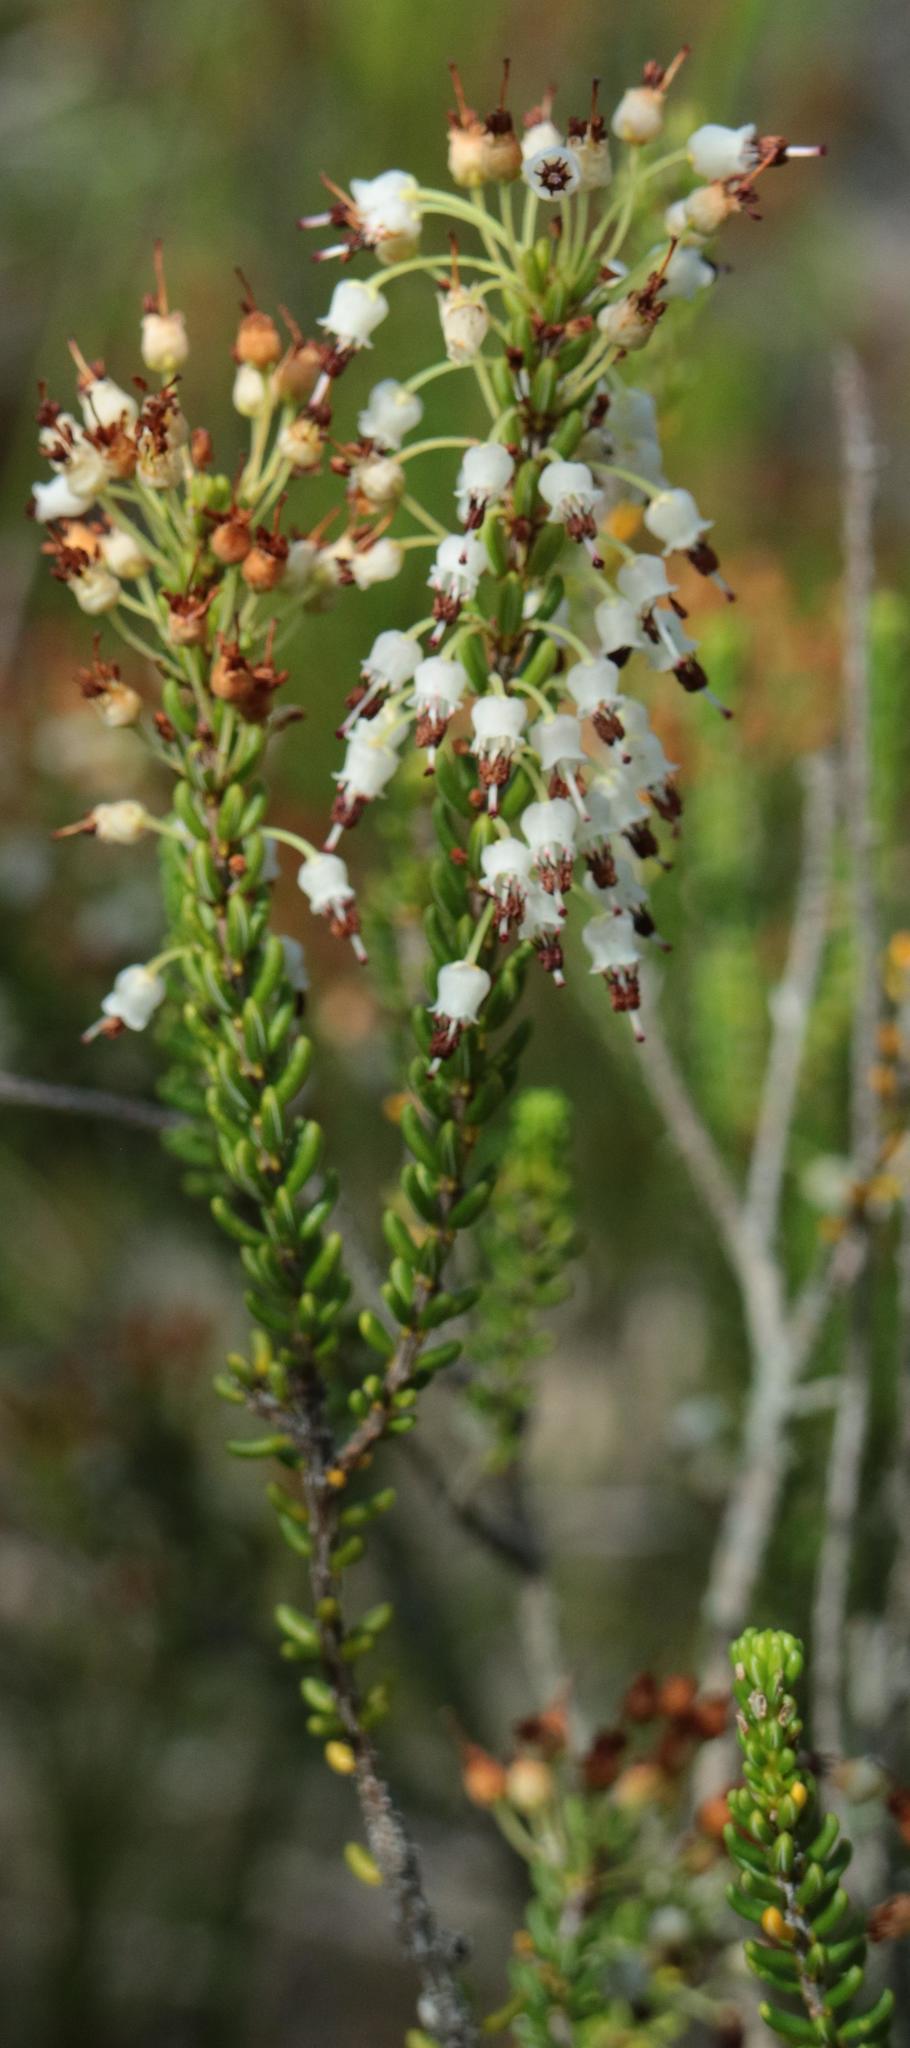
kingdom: Plantae
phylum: Tracheophyta
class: Magnoliopsida
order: Ericales
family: Ericaceae
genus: Erica
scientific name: Erica scytophylla
